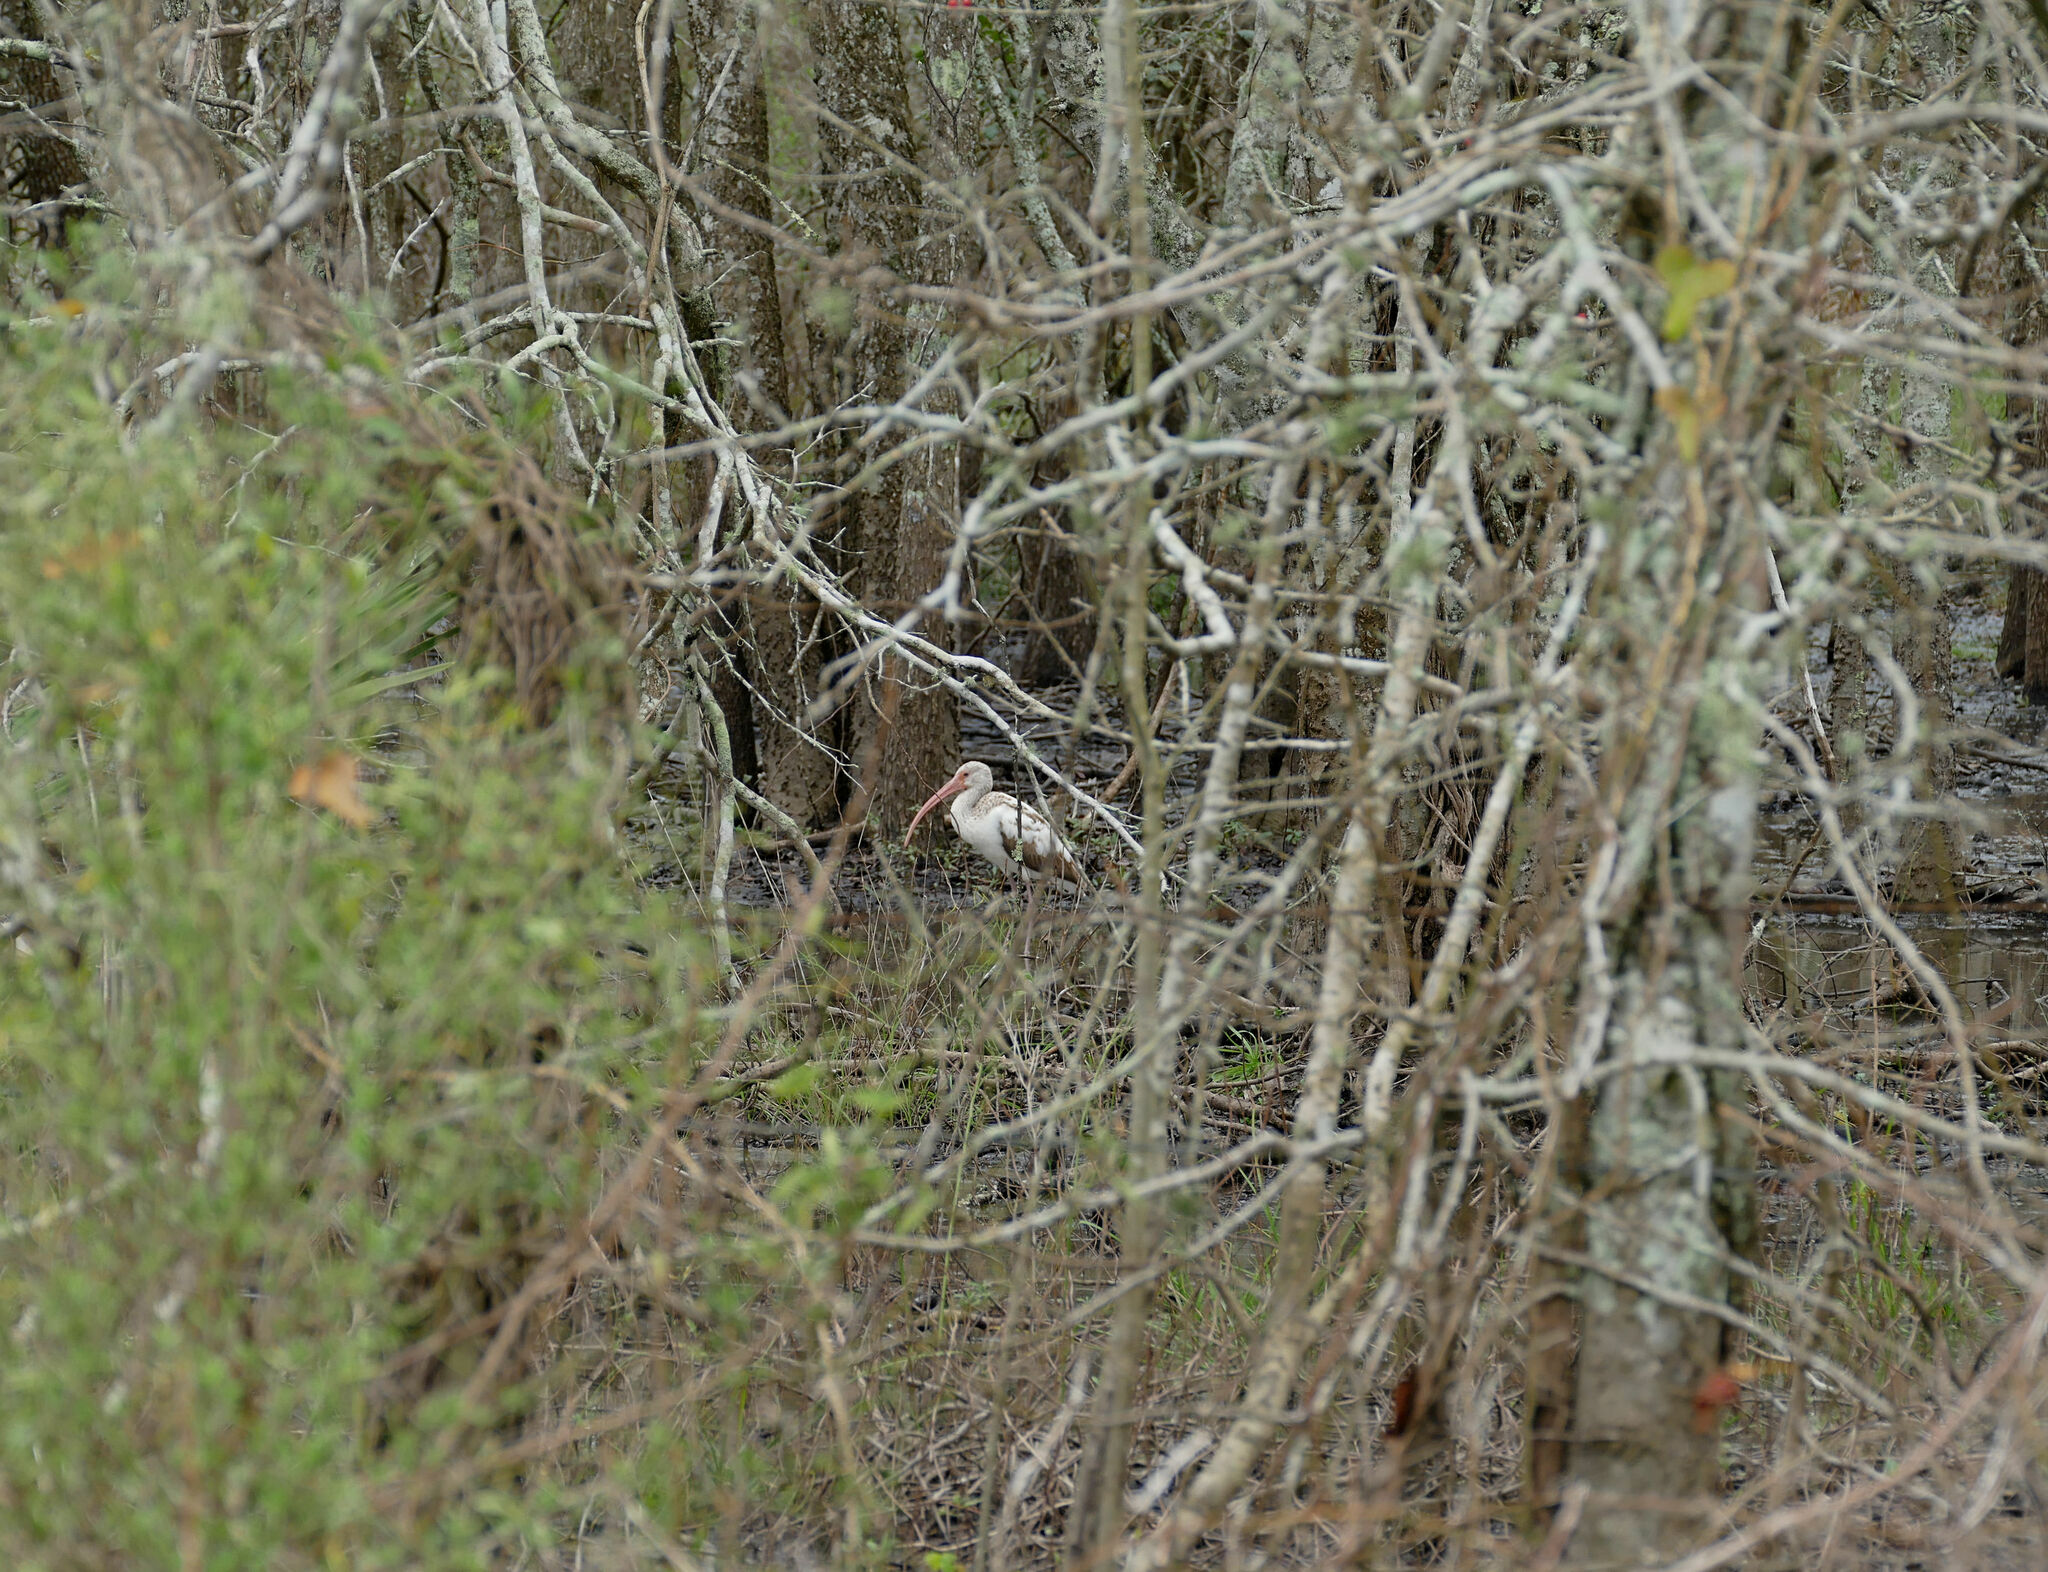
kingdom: Animalia
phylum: Chordata
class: Aves
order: Pelecaniformes
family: Threskiornithidae
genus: Eudocimus
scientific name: Eudocimus albus
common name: White ibis
